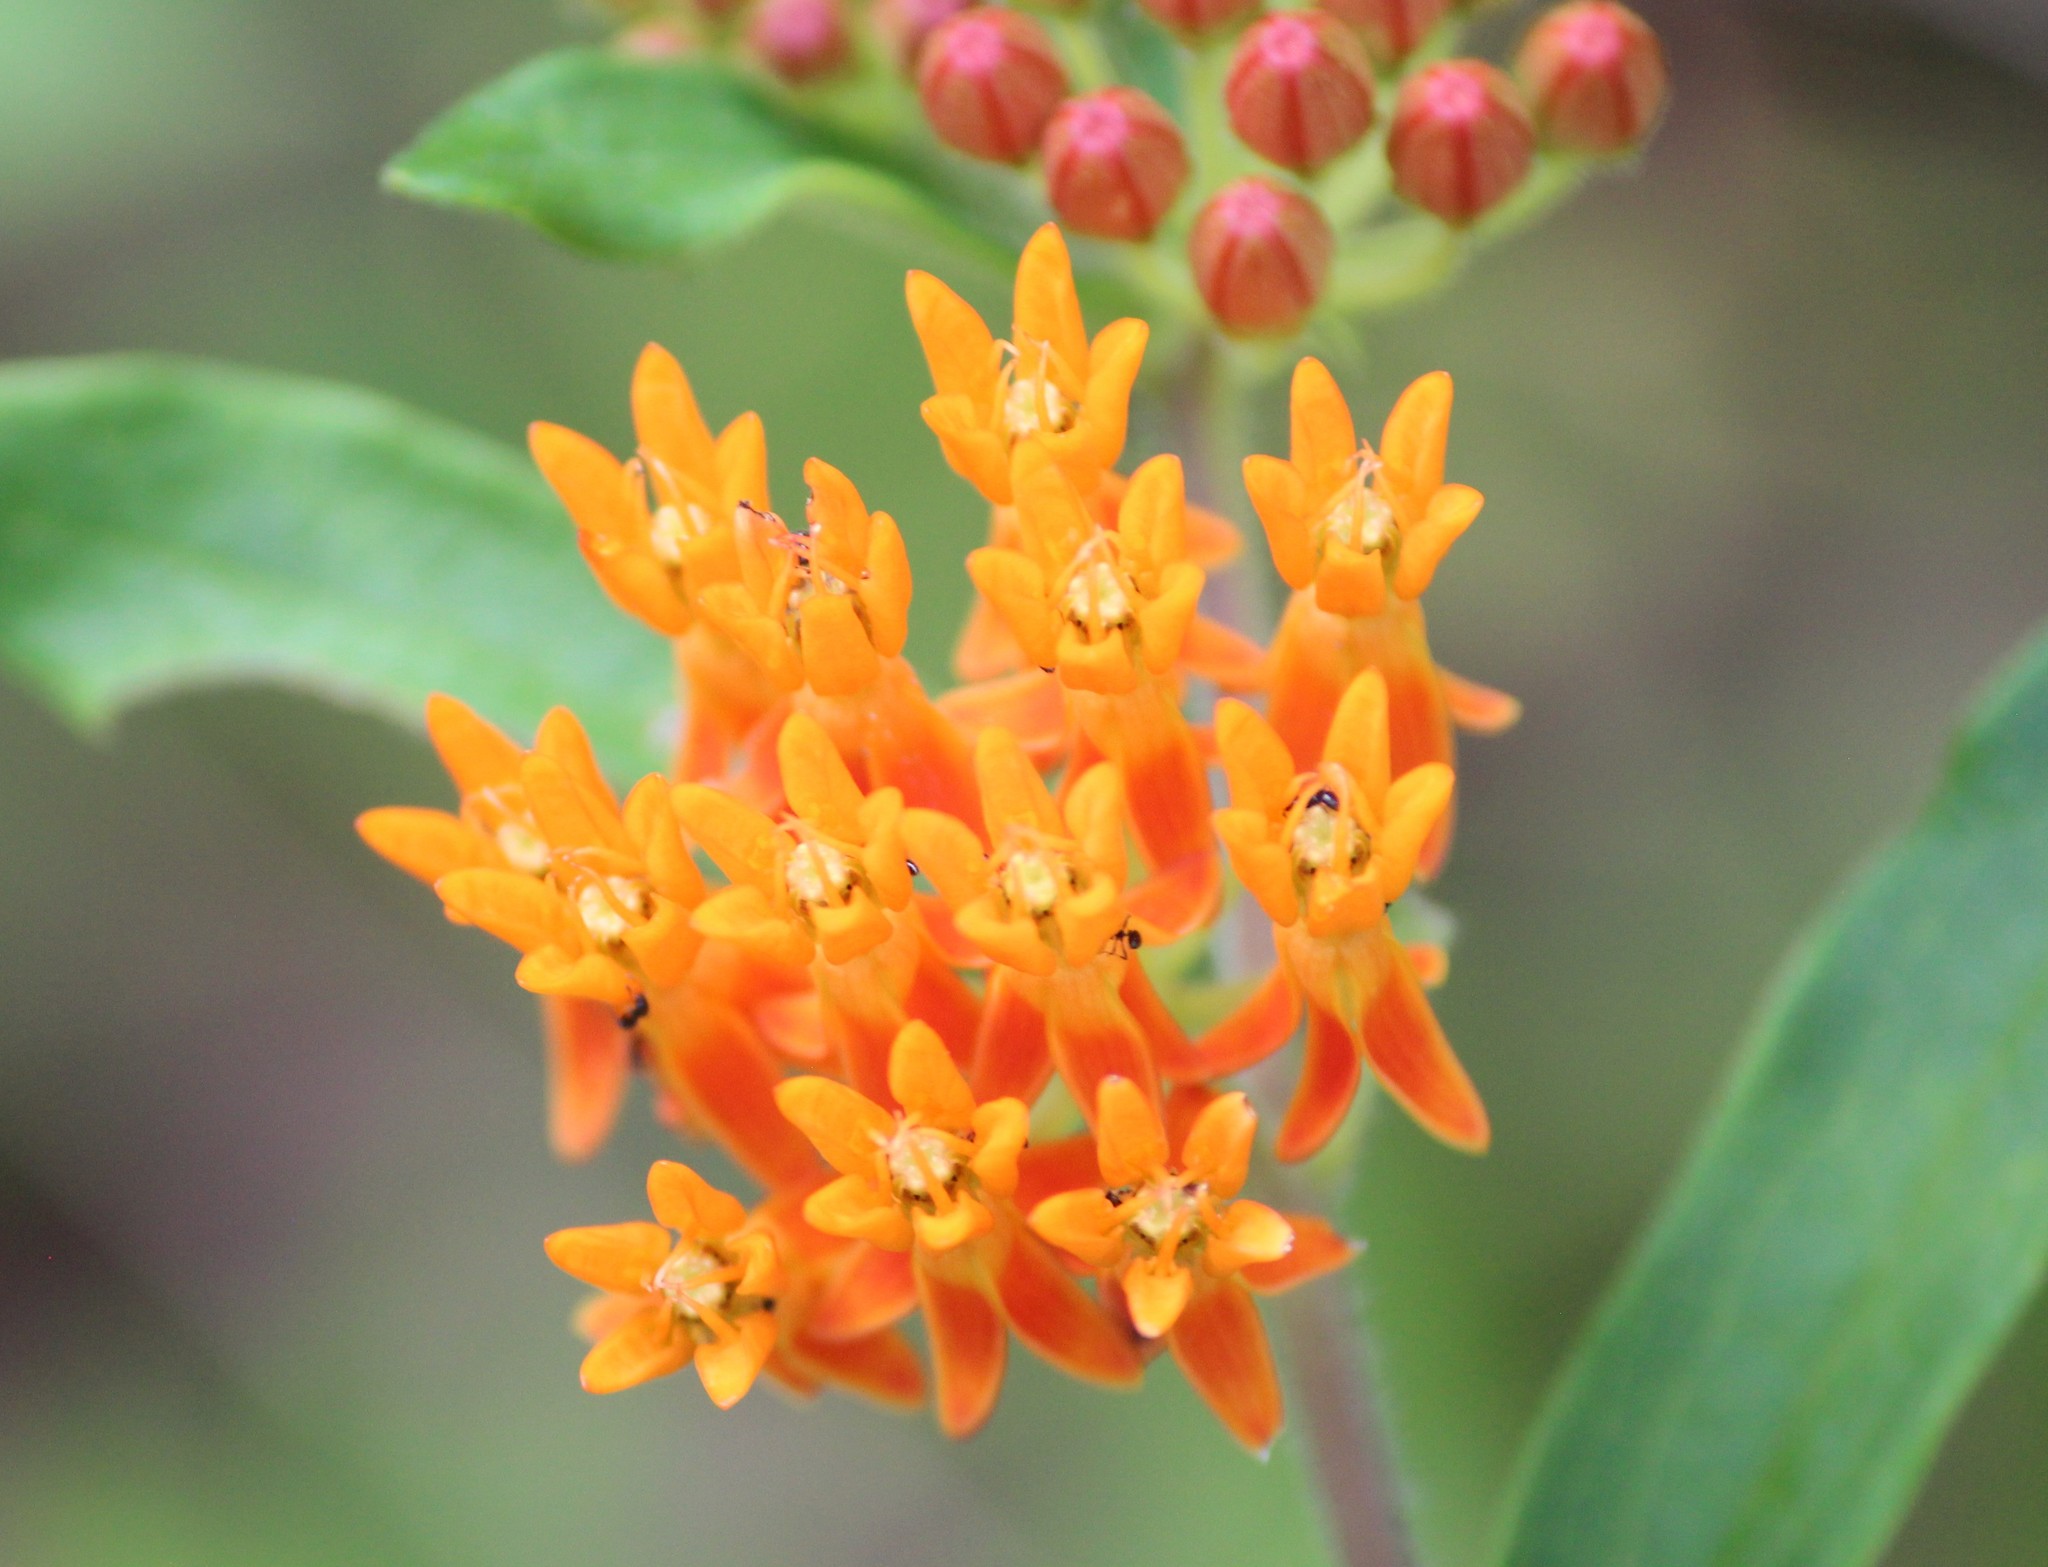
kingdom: Plantae
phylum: Tracheophyta
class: Magnoliopsida
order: Gentianales
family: Apocynaceae
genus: Asclepias
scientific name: Asclepias tuberosa
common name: Butterfly milkweed
